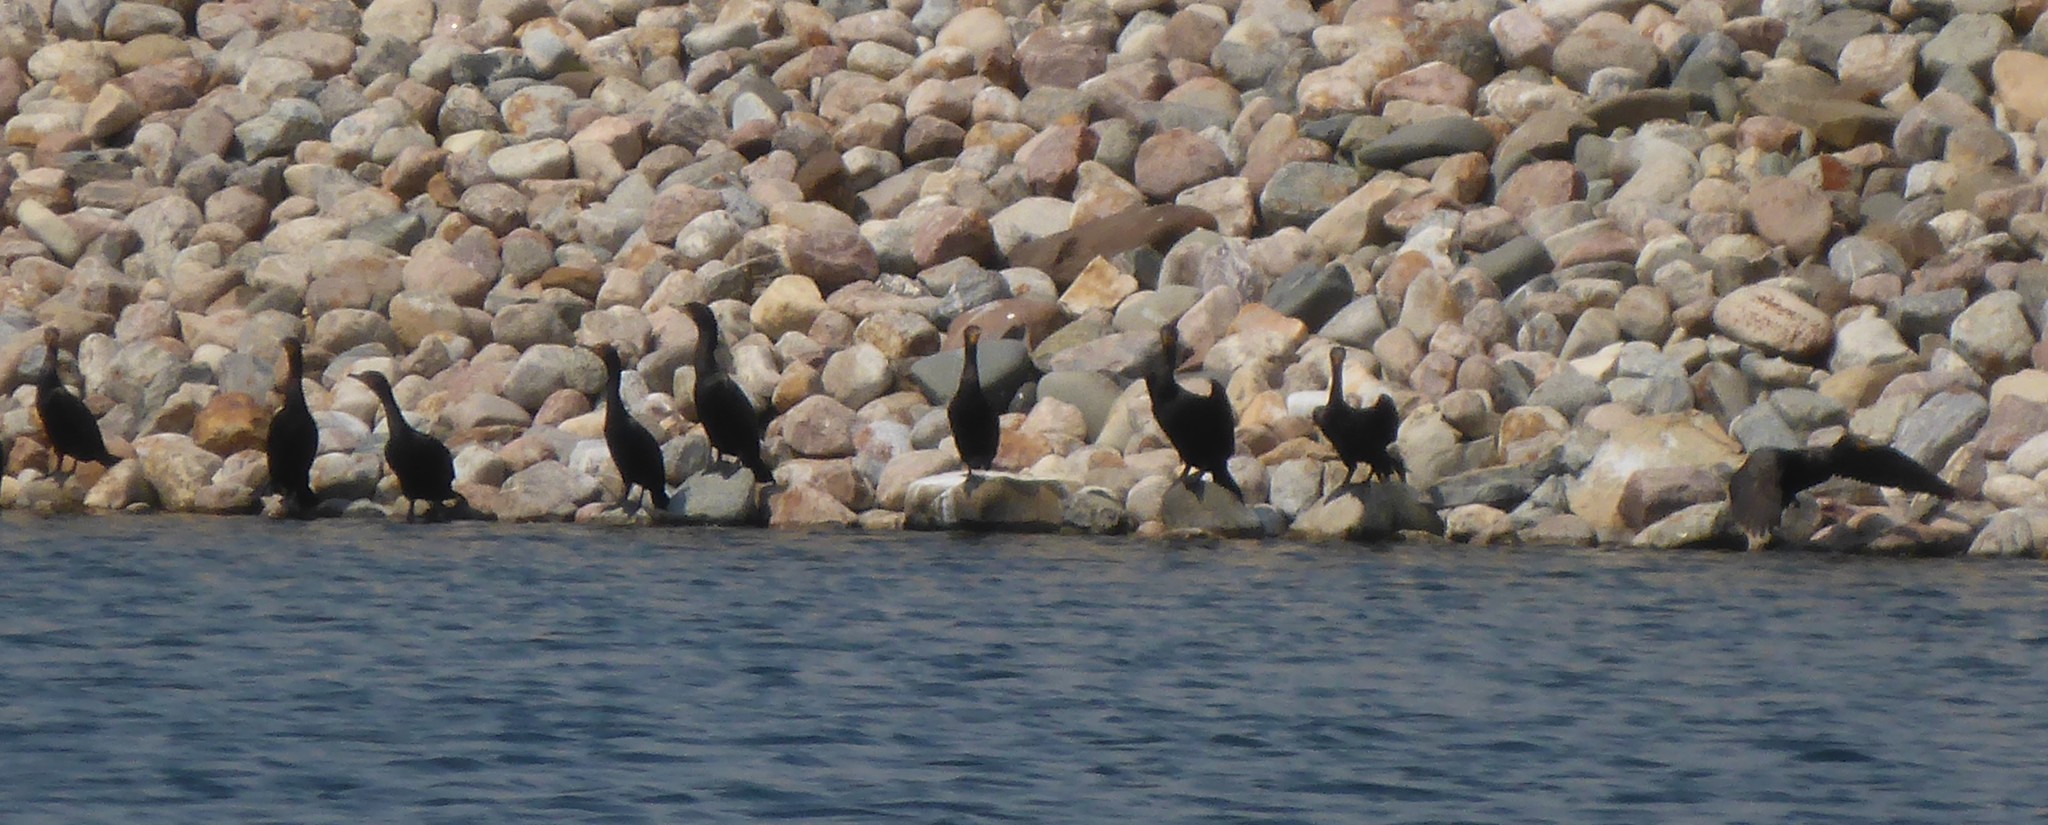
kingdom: Animalia
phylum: Chordata
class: Aves
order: Suliformes
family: Phalacrocoracidae
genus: Phalacrocorax
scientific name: Phalacrocorax auritus
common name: Double-crested cormorant
